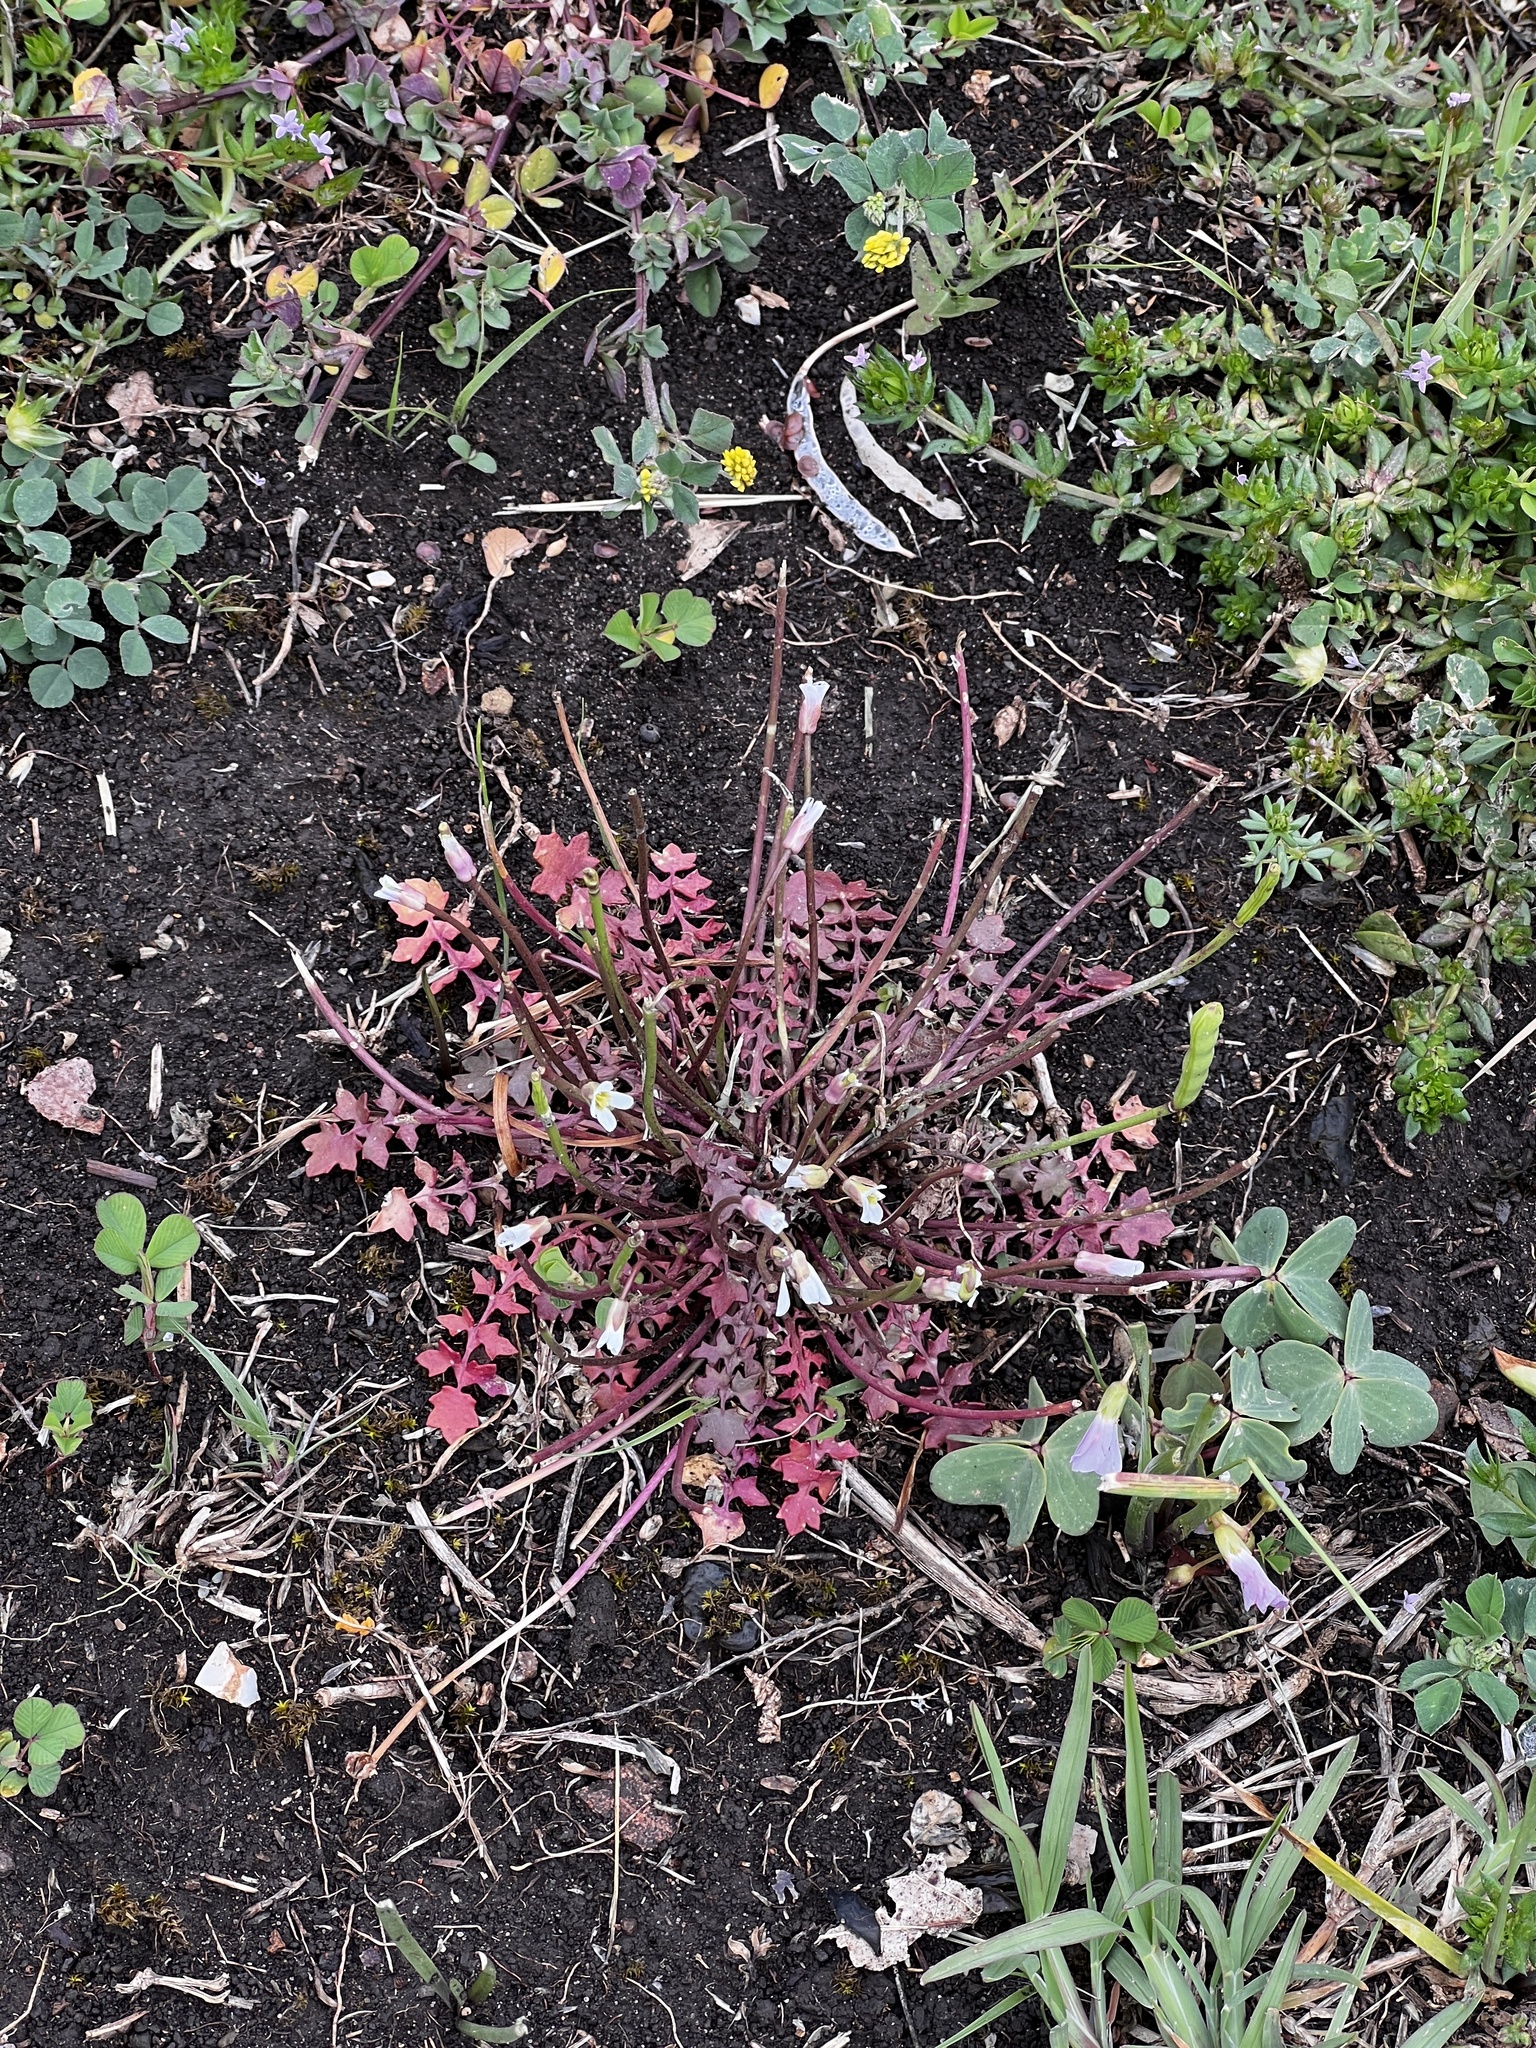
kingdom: Plantae
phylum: Tracheophyta
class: Magnoliopsida
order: Brassicales
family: Brassicaceae
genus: Leavenworthia
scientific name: Leavenworthia uniflora
